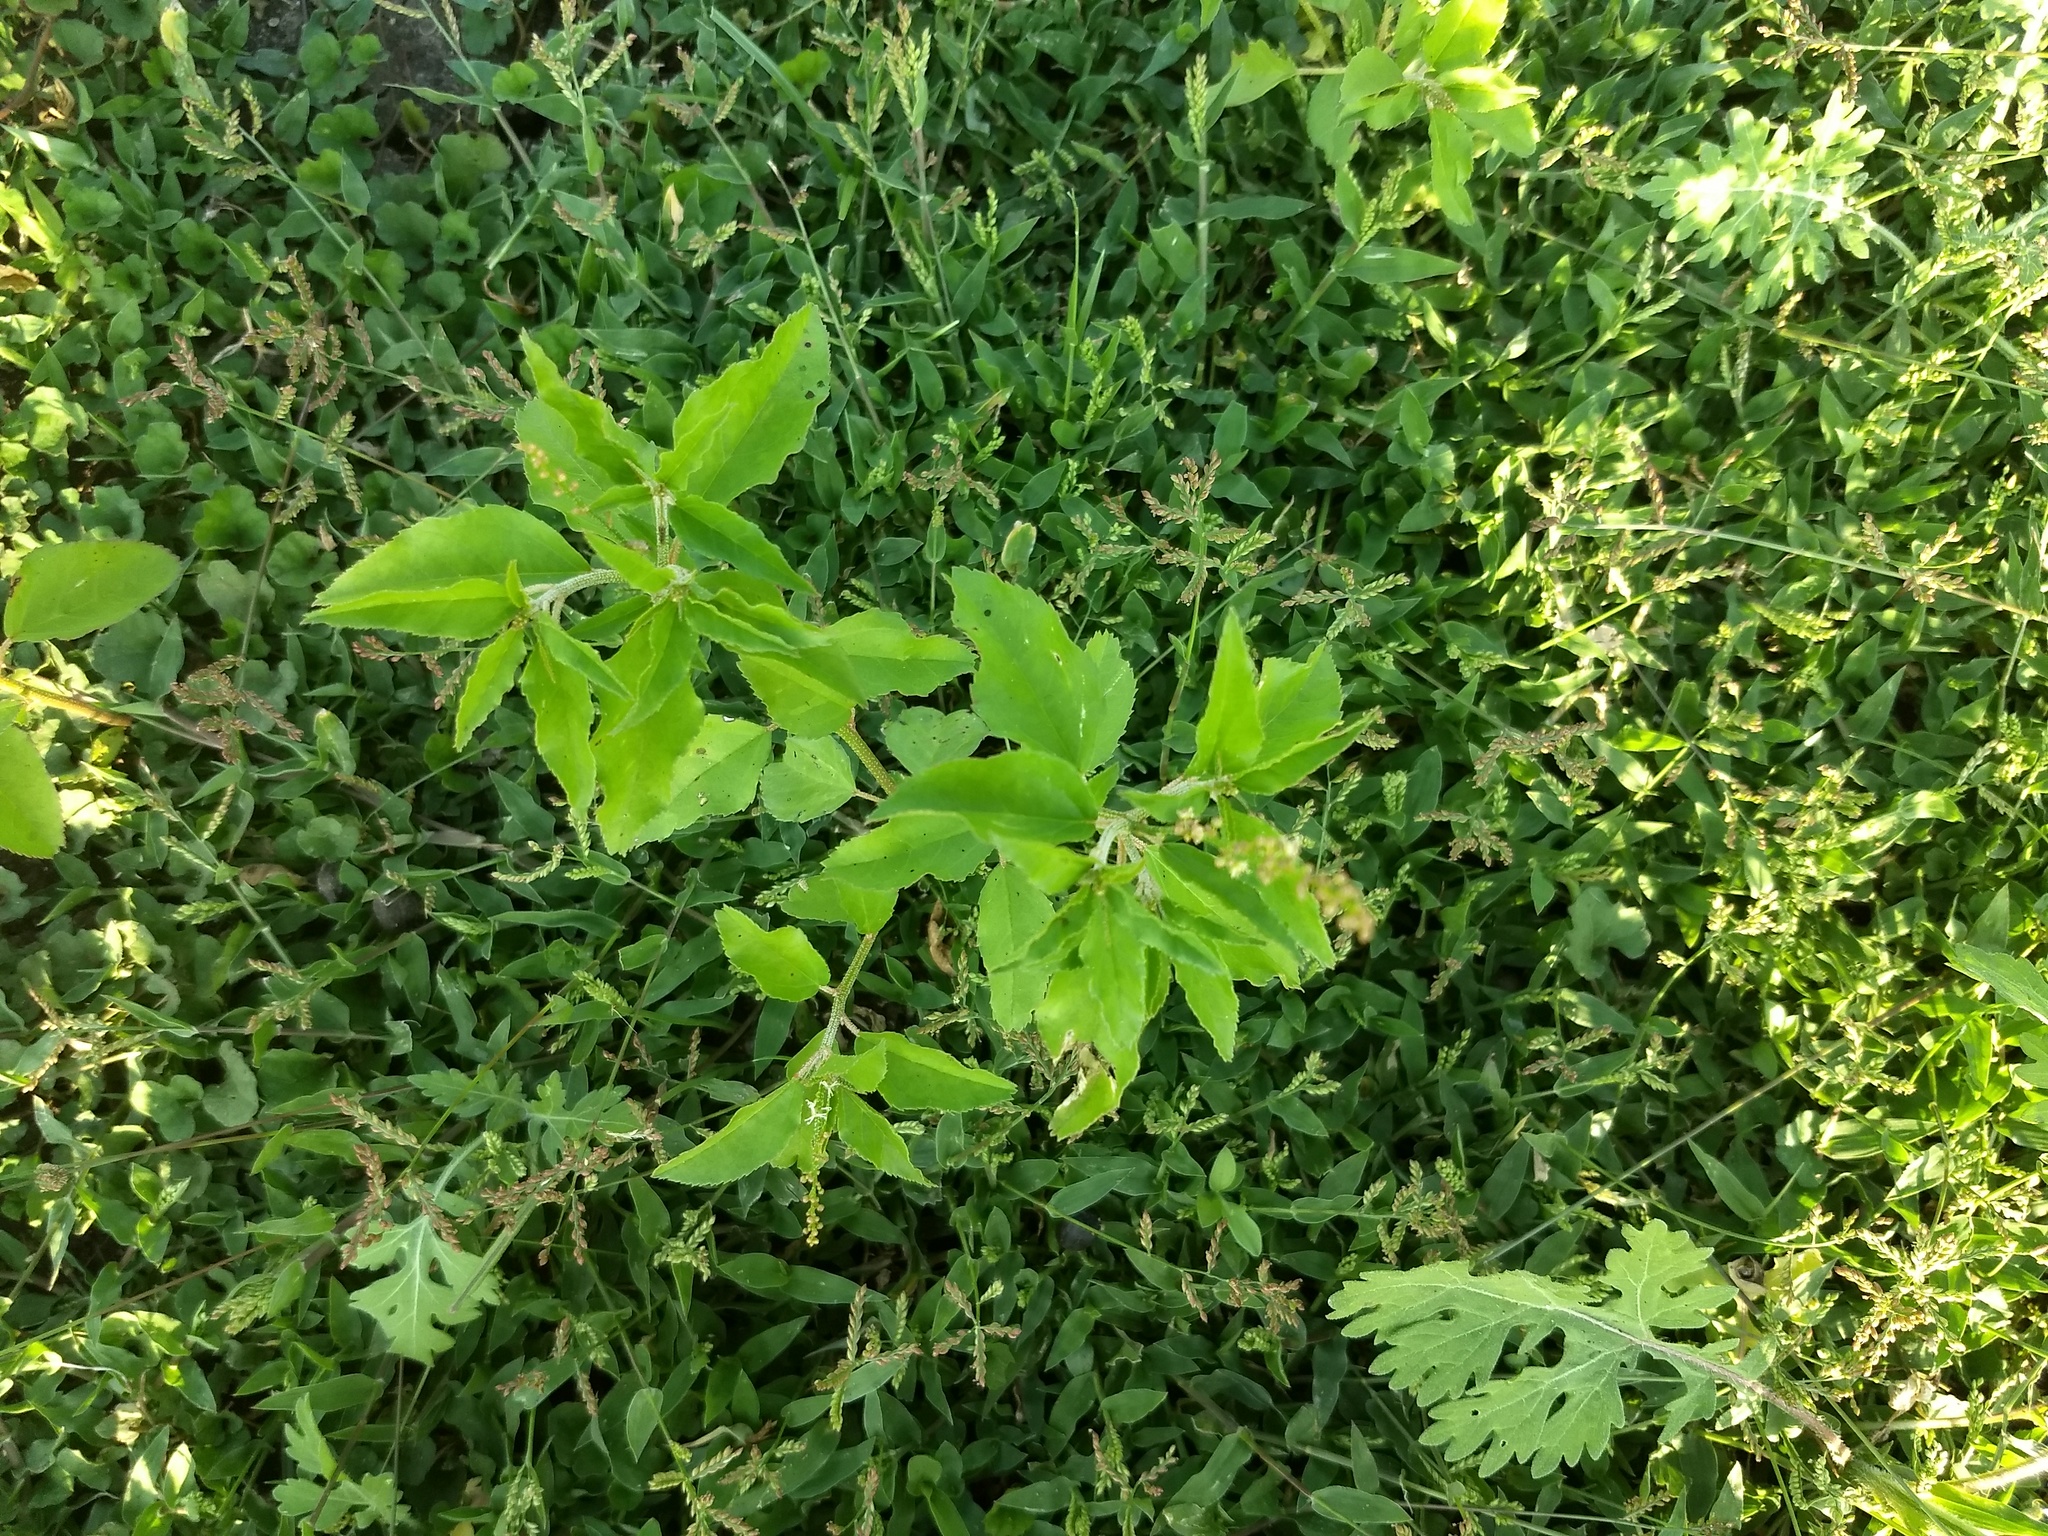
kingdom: Plantae
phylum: Tracheophyta
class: Magnoliopsida
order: Malpighiales
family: Euphorbiaceae
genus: Croton
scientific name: Croton bonplandianus
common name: Bonpland's croton
